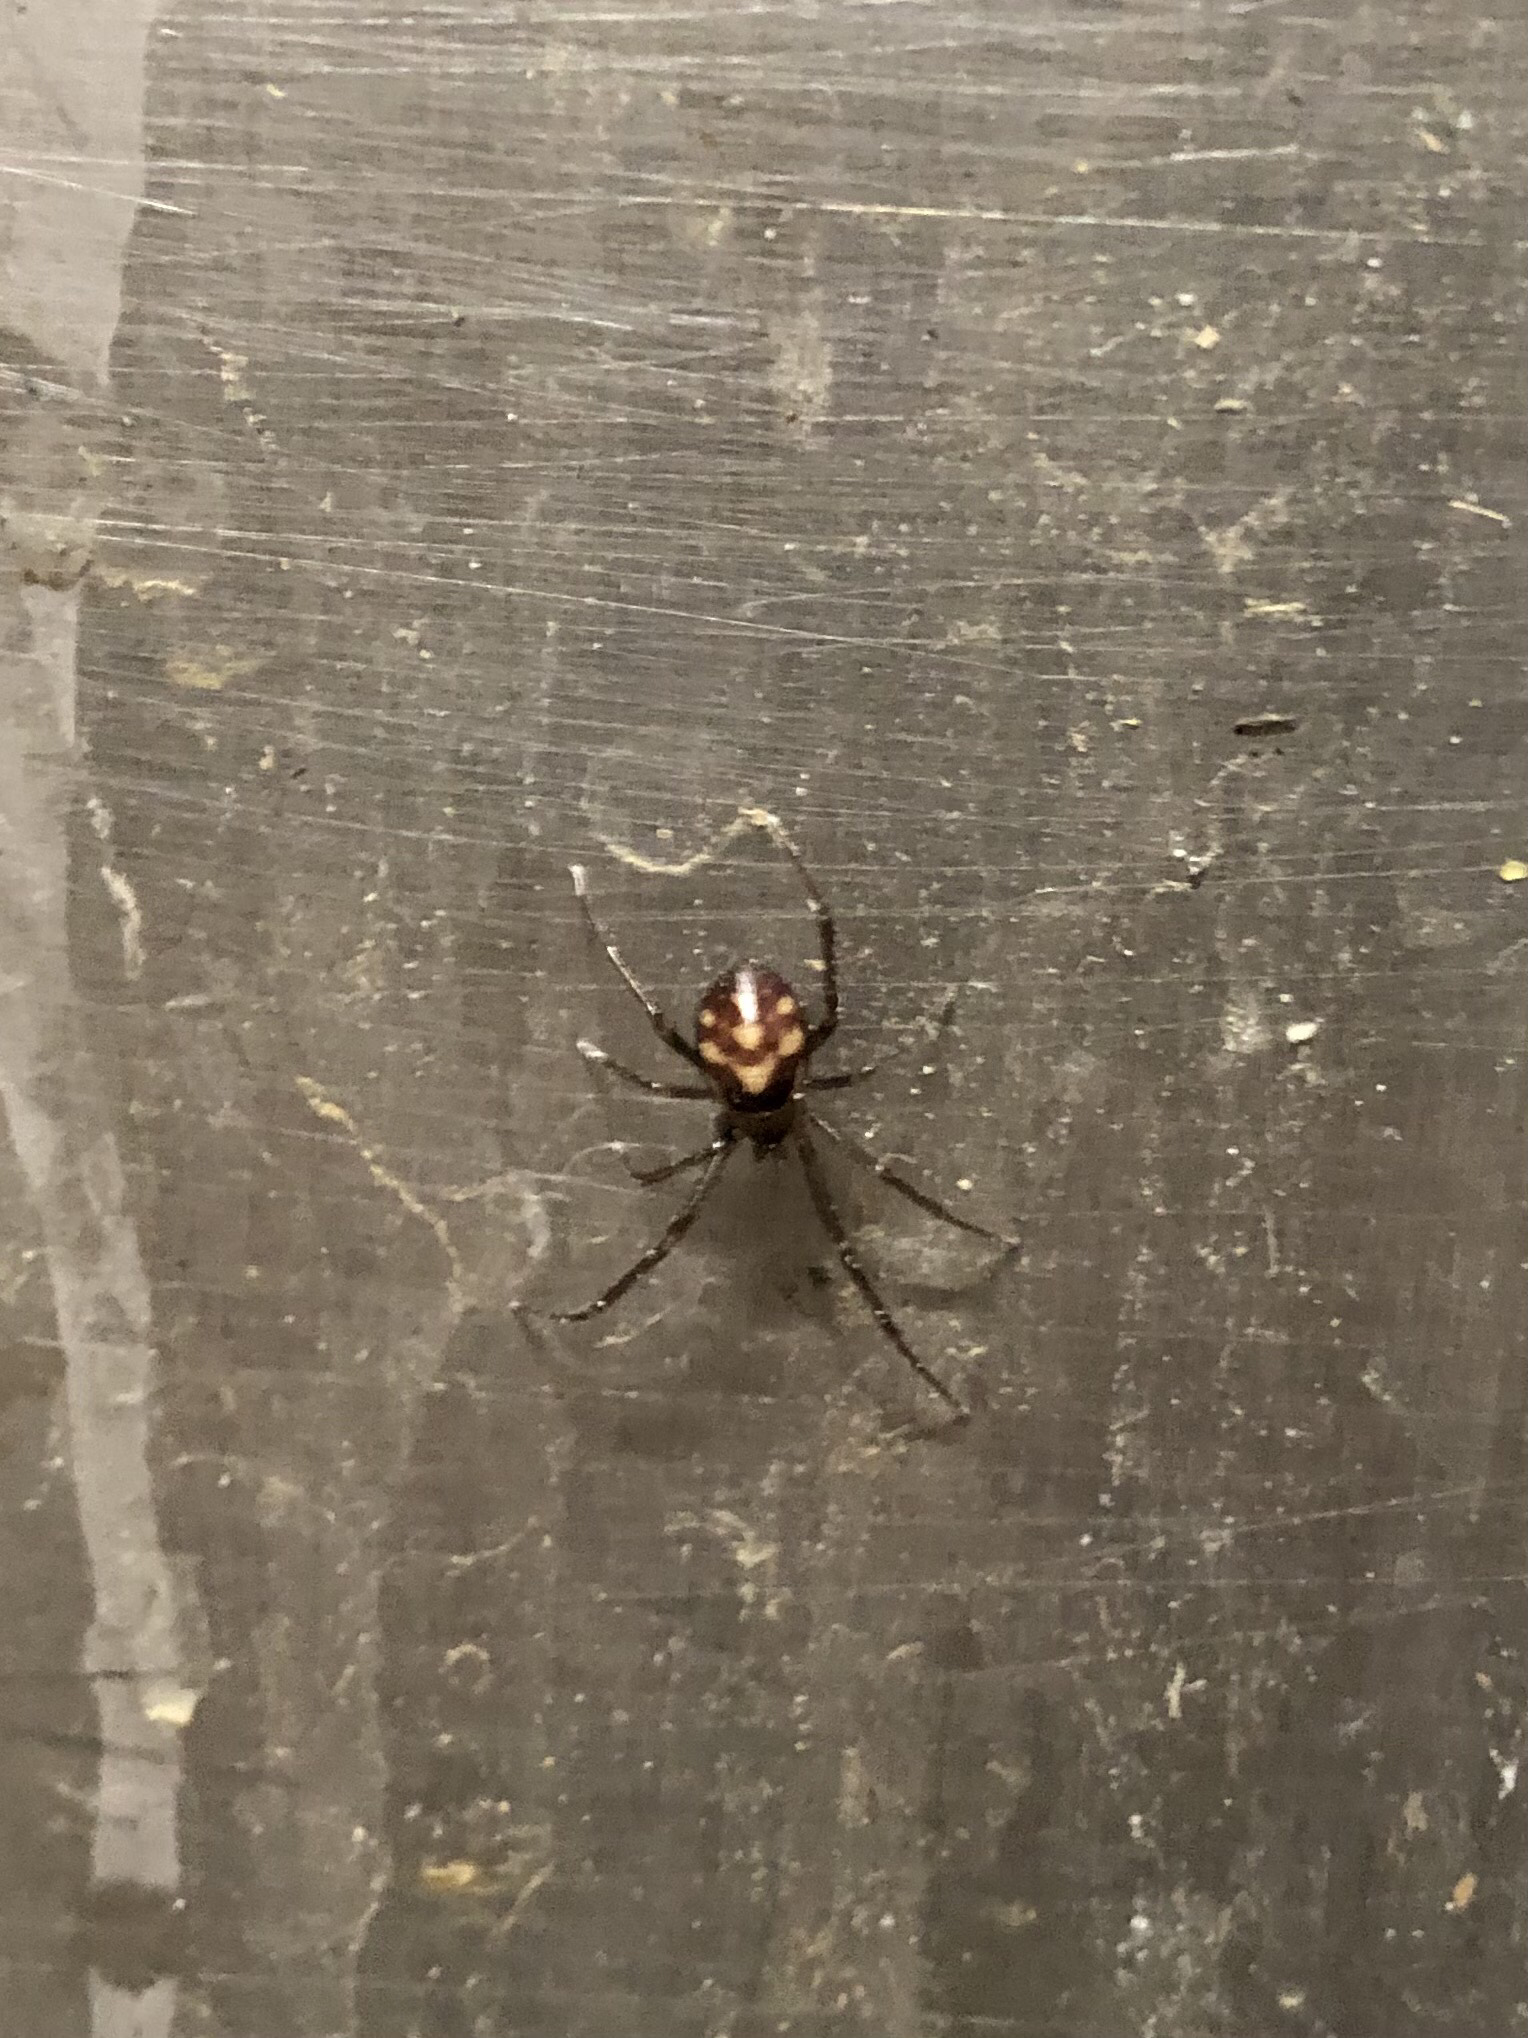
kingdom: Animalia
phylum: Arthropoda
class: Arachnida
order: Araneae
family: Theridiidae
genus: Steatoda
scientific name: Steatoda grossa
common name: False black widow
